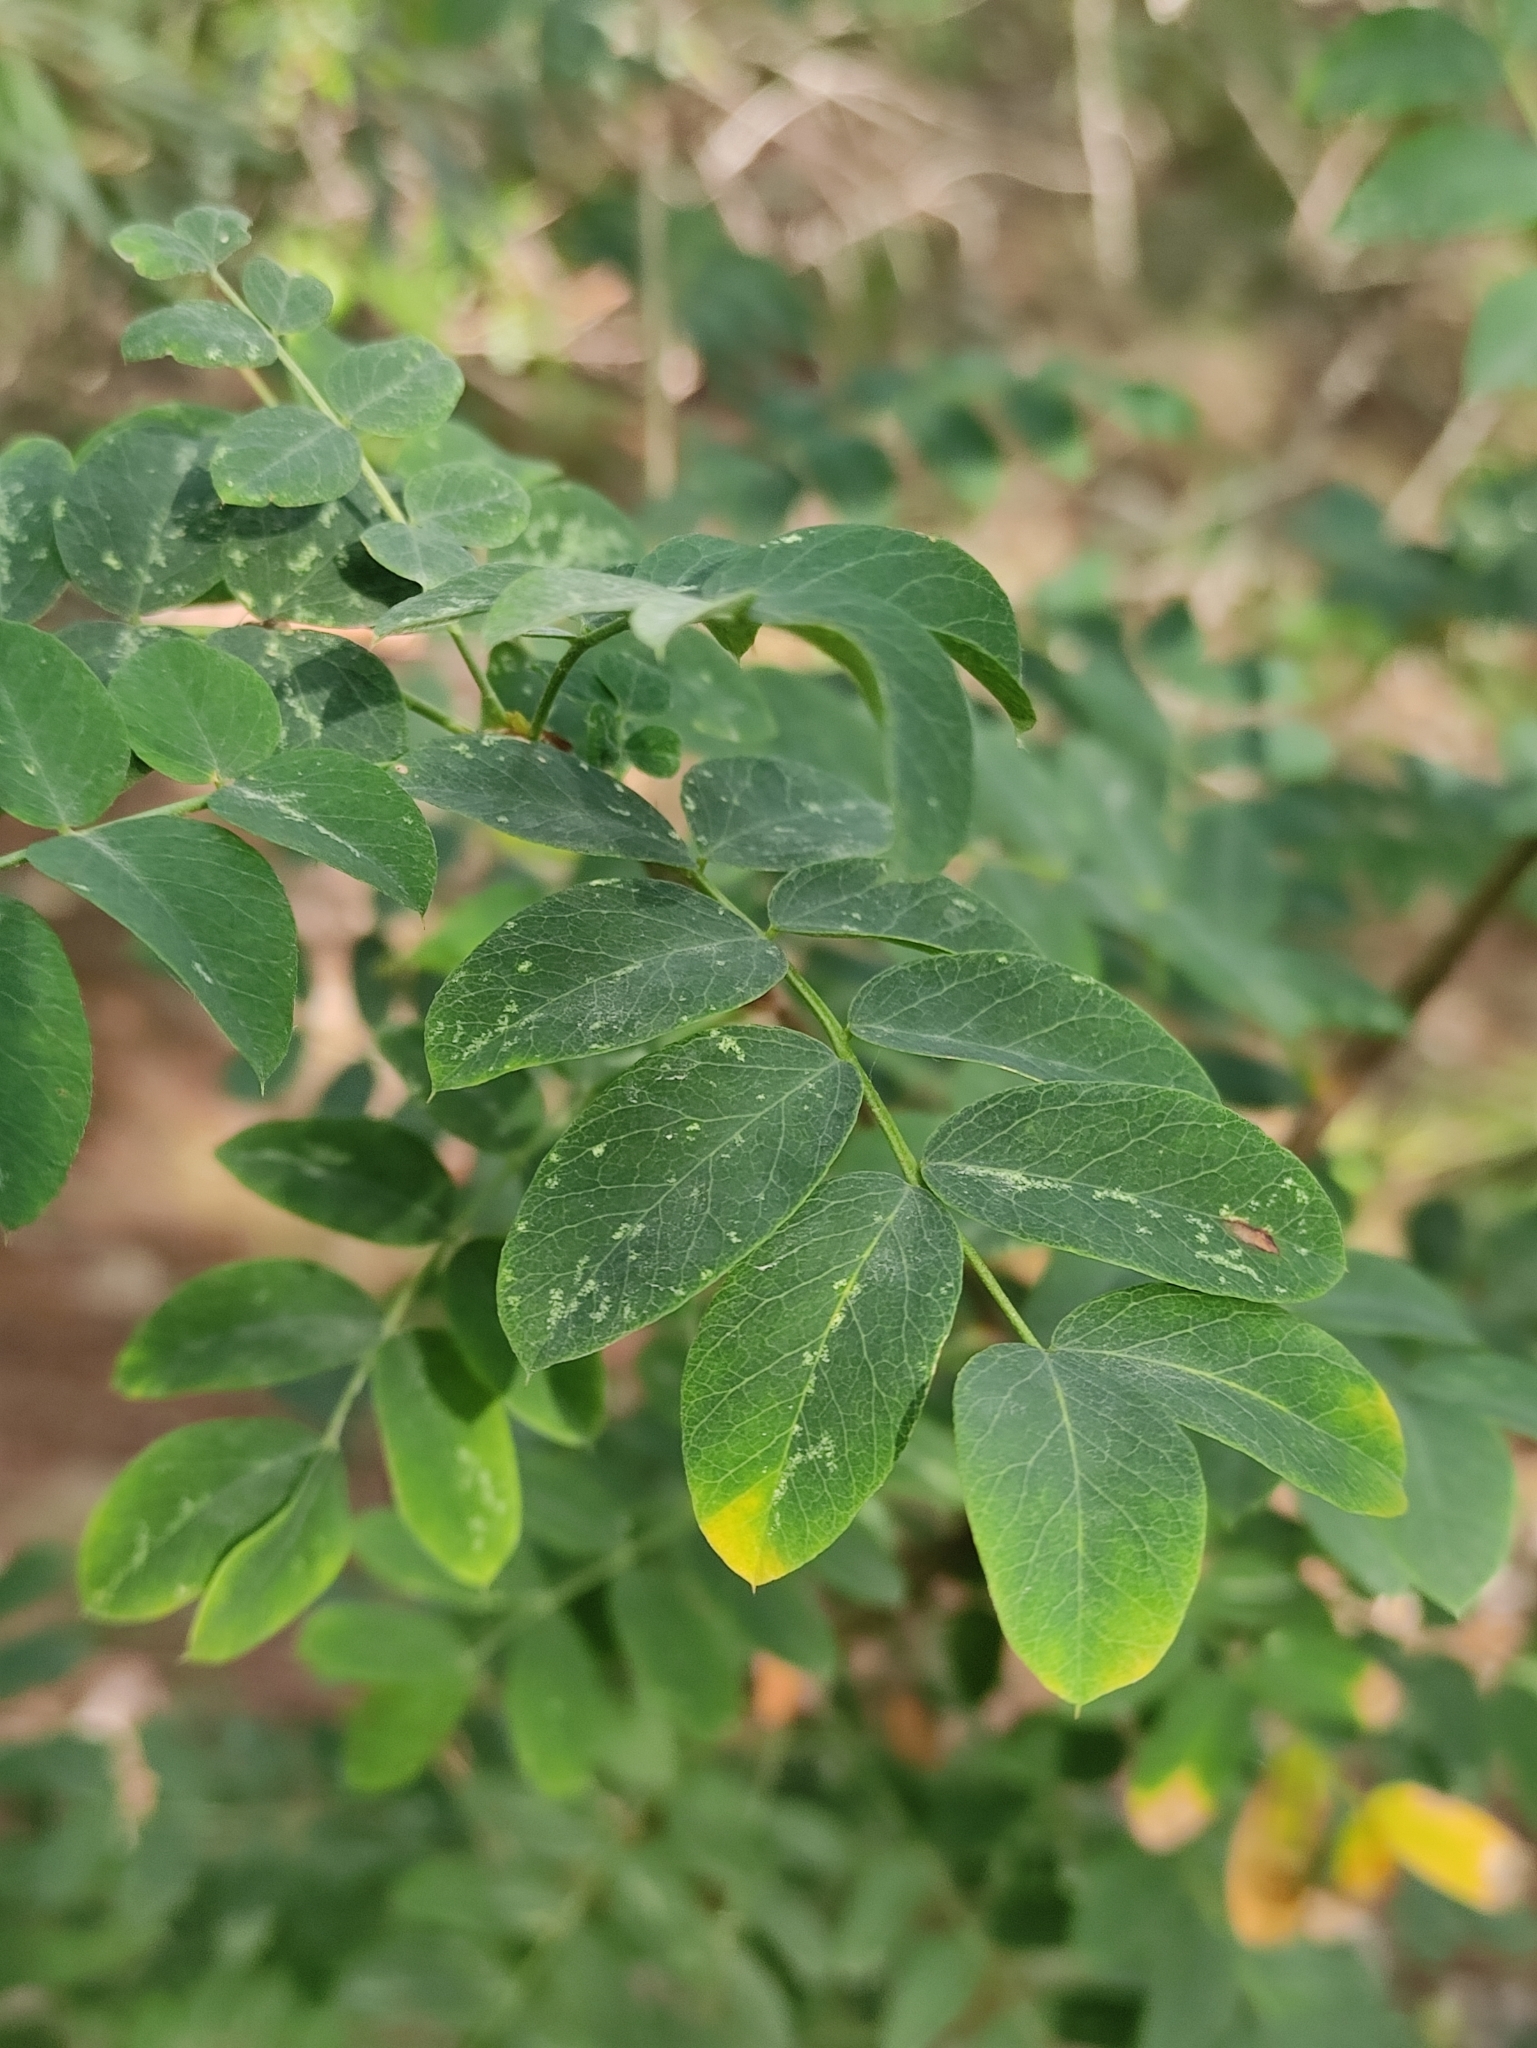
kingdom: Plantae
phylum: Tracheophyta
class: Magnoliopsida
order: Fabales
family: Fabaceae
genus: Caragana
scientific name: Caragana arborescens
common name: Siberian peashrub
